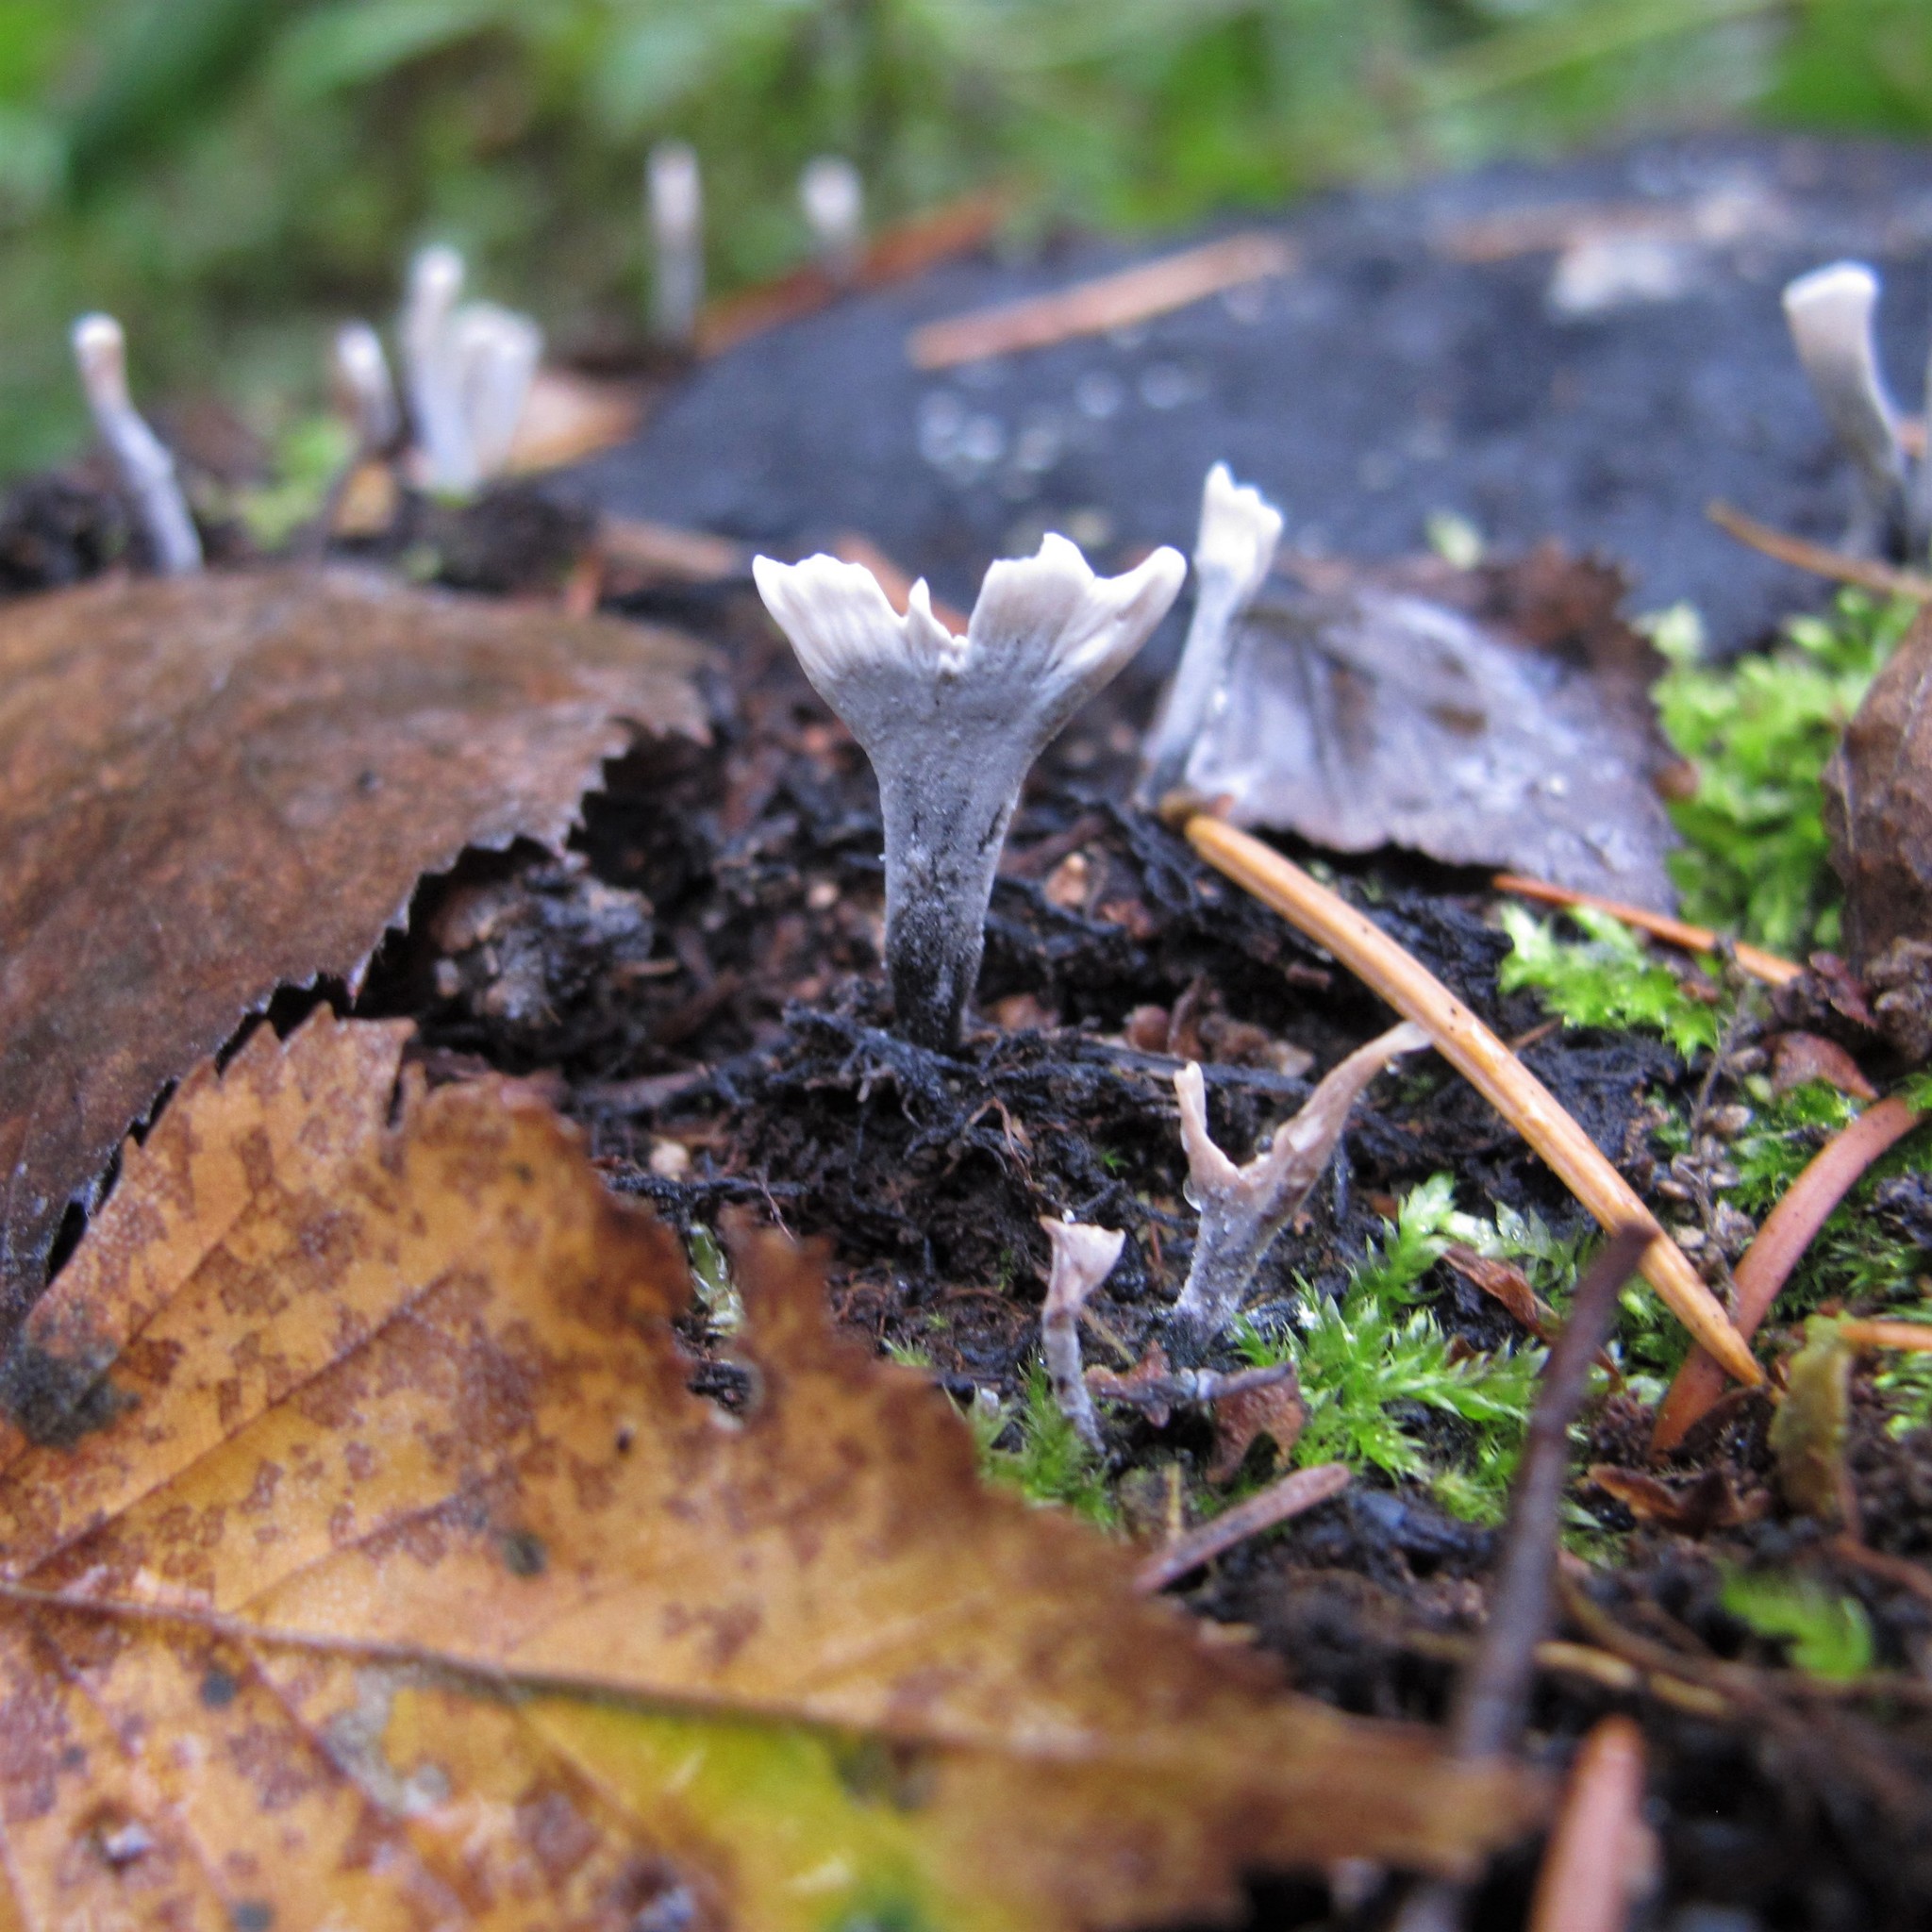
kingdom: Fungi
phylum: Ascomycota
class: Sordariomycetes
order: Xylariales
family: Xylariaceae
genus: Xylaria
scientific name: Xylaria hypoxylon
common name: Candle-snuff fungus
